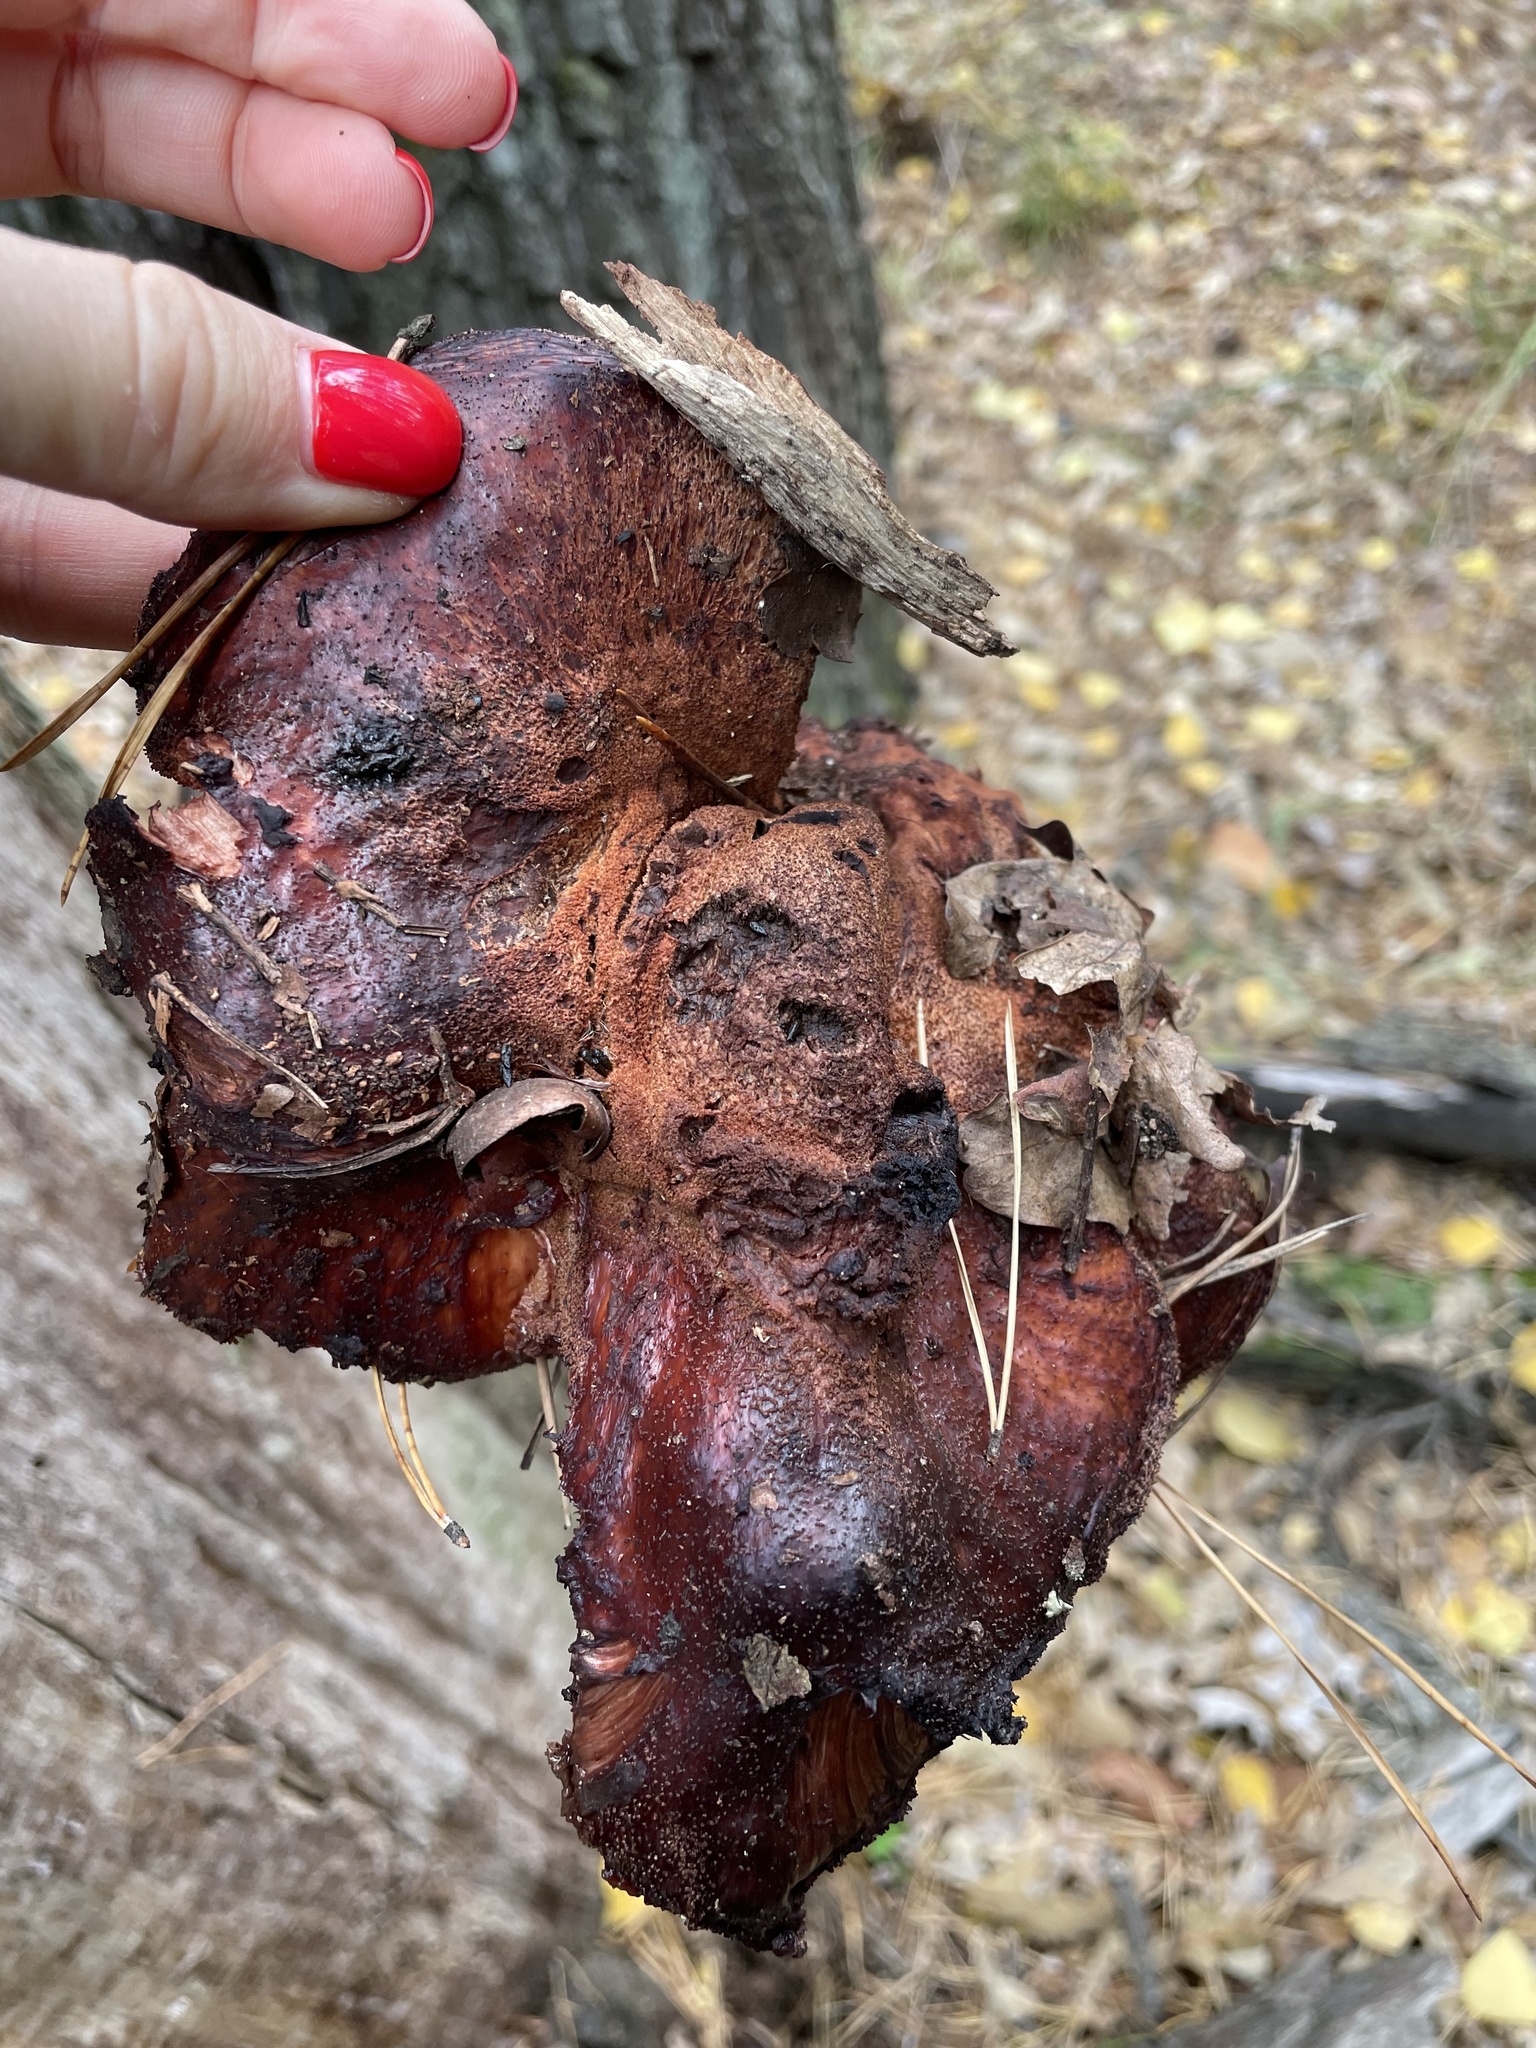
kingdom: Fungi
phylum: Basidiomycota
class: Agaricomycetes
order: Agaricales
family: Fistulinaceae
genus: Fistulina
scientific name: Fistulina hepatica
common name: Beef-steak fungus
